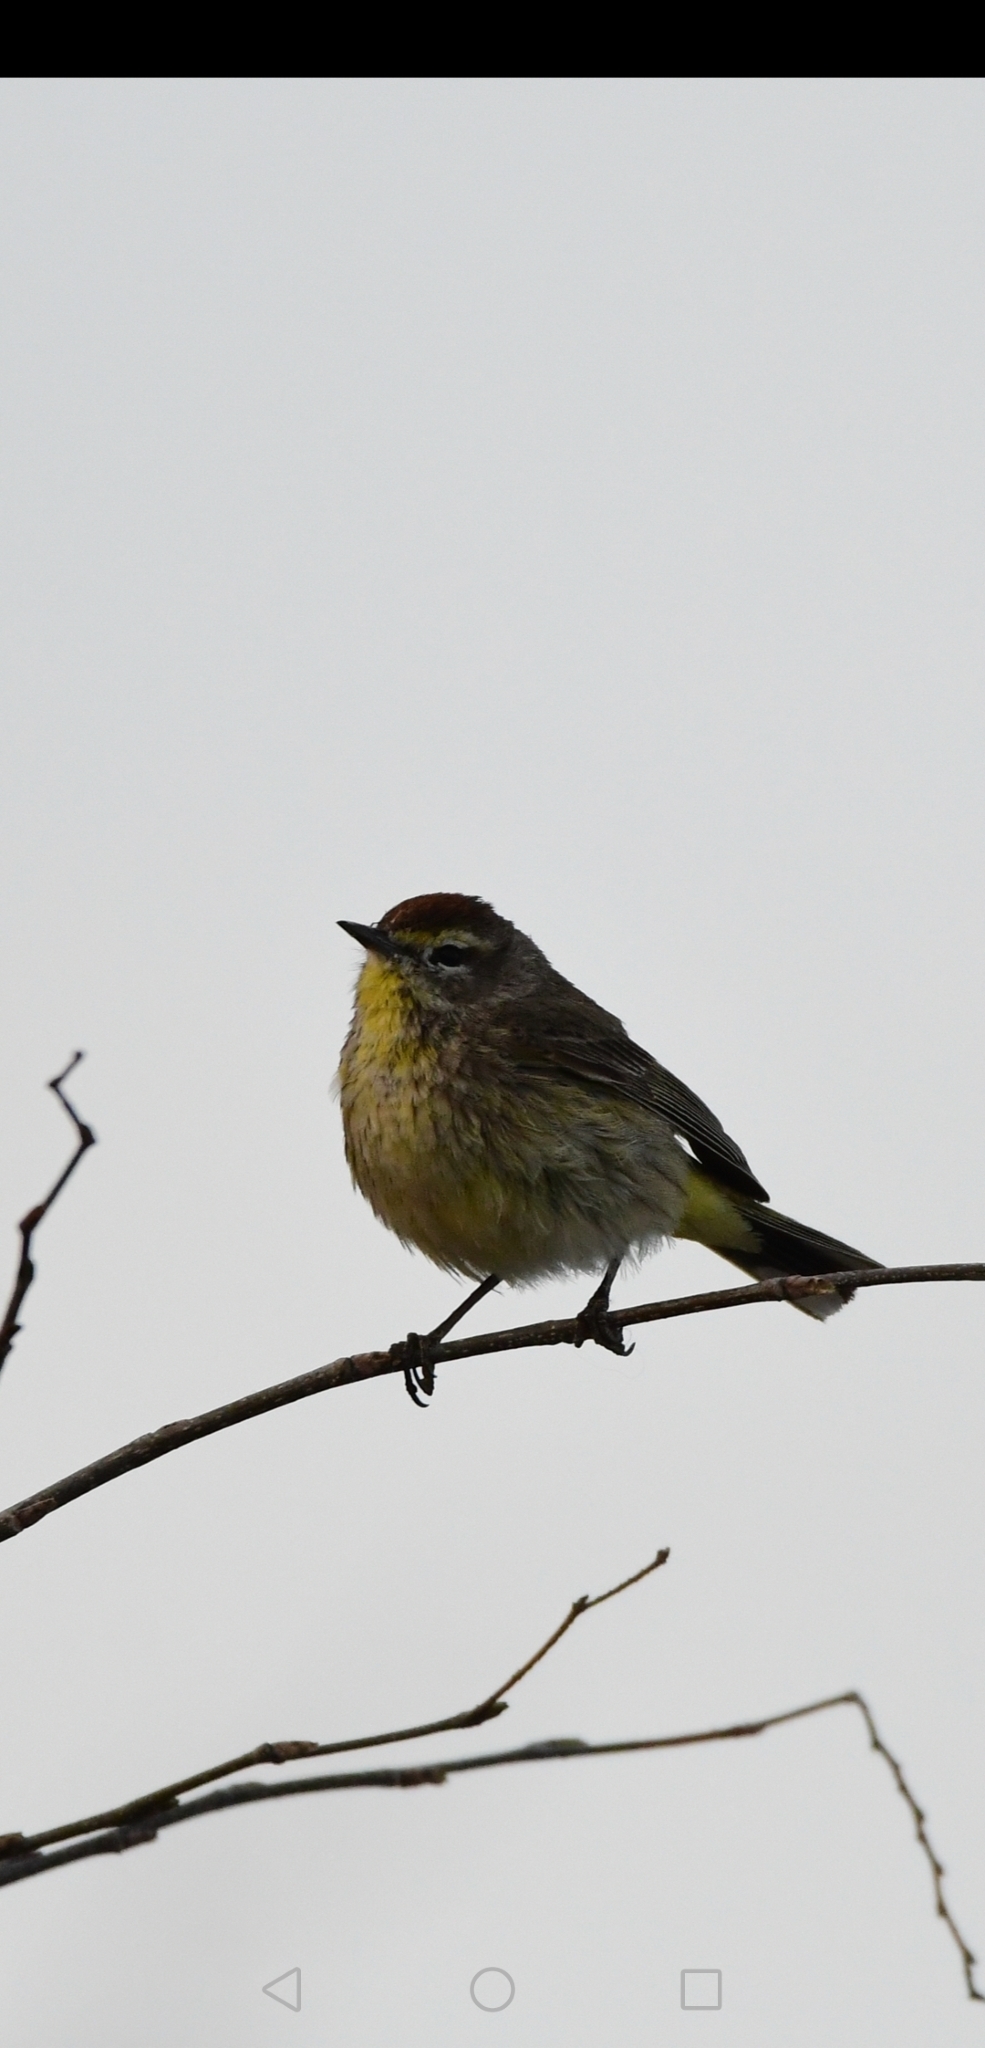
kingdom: Animalia
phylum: Chordata
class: Aves
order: Passeriformes
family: Parulidae
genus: Setophaga
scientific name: Setophaga palmarum
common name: Palm warbler
